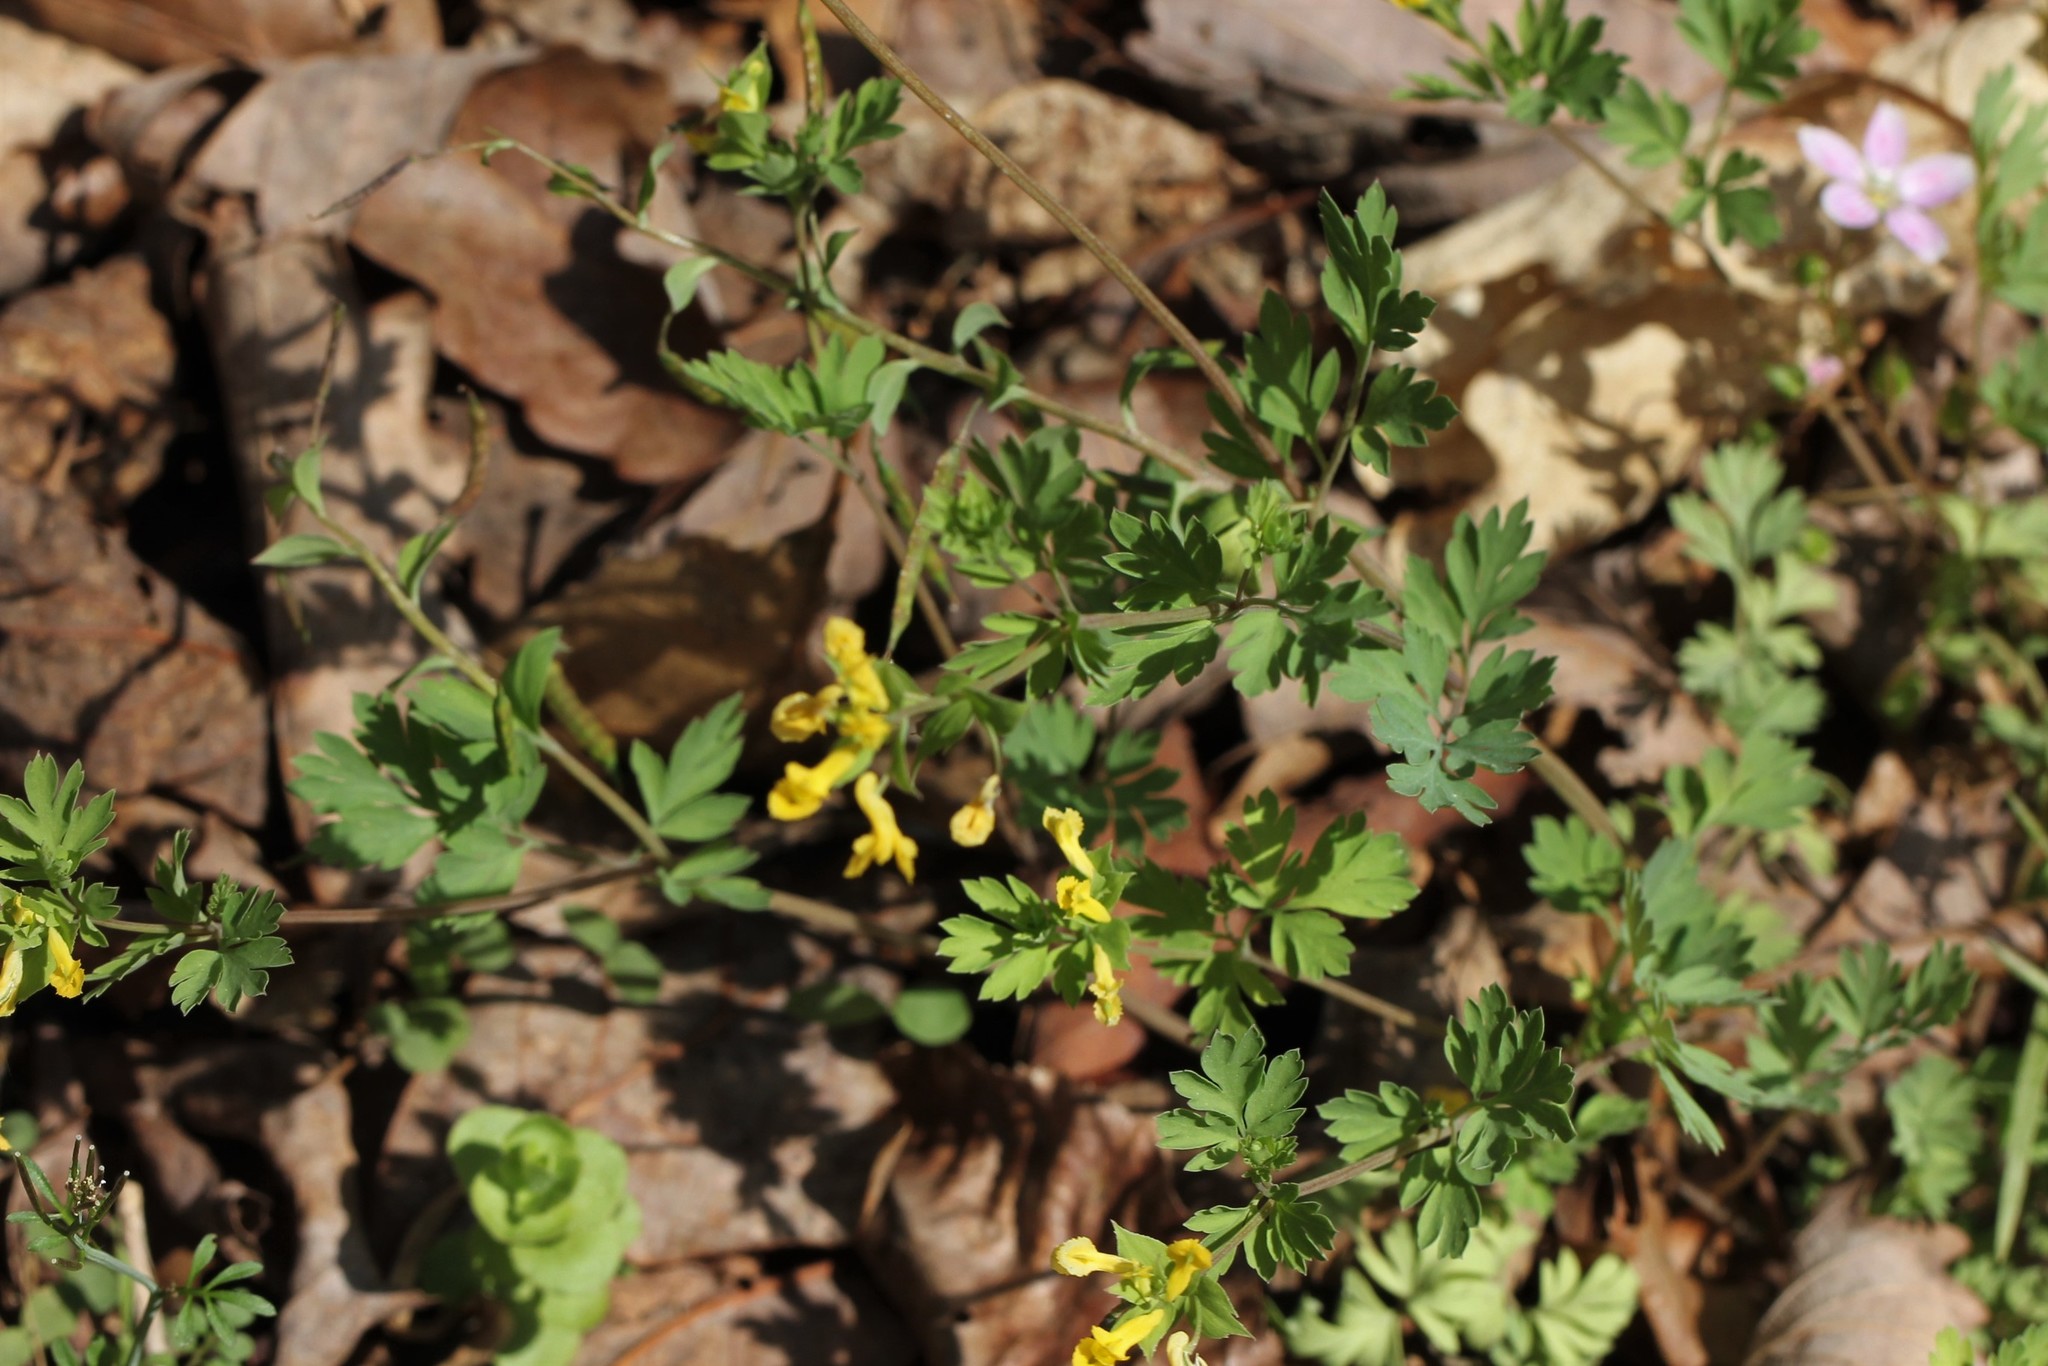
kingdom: Plantae
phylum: Tracheophyta
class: Magnoliopsida
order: Ranunculales
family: Papaveraceae
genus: Corydalis
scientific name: Corydalis flavula
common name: Yellow corydalis
